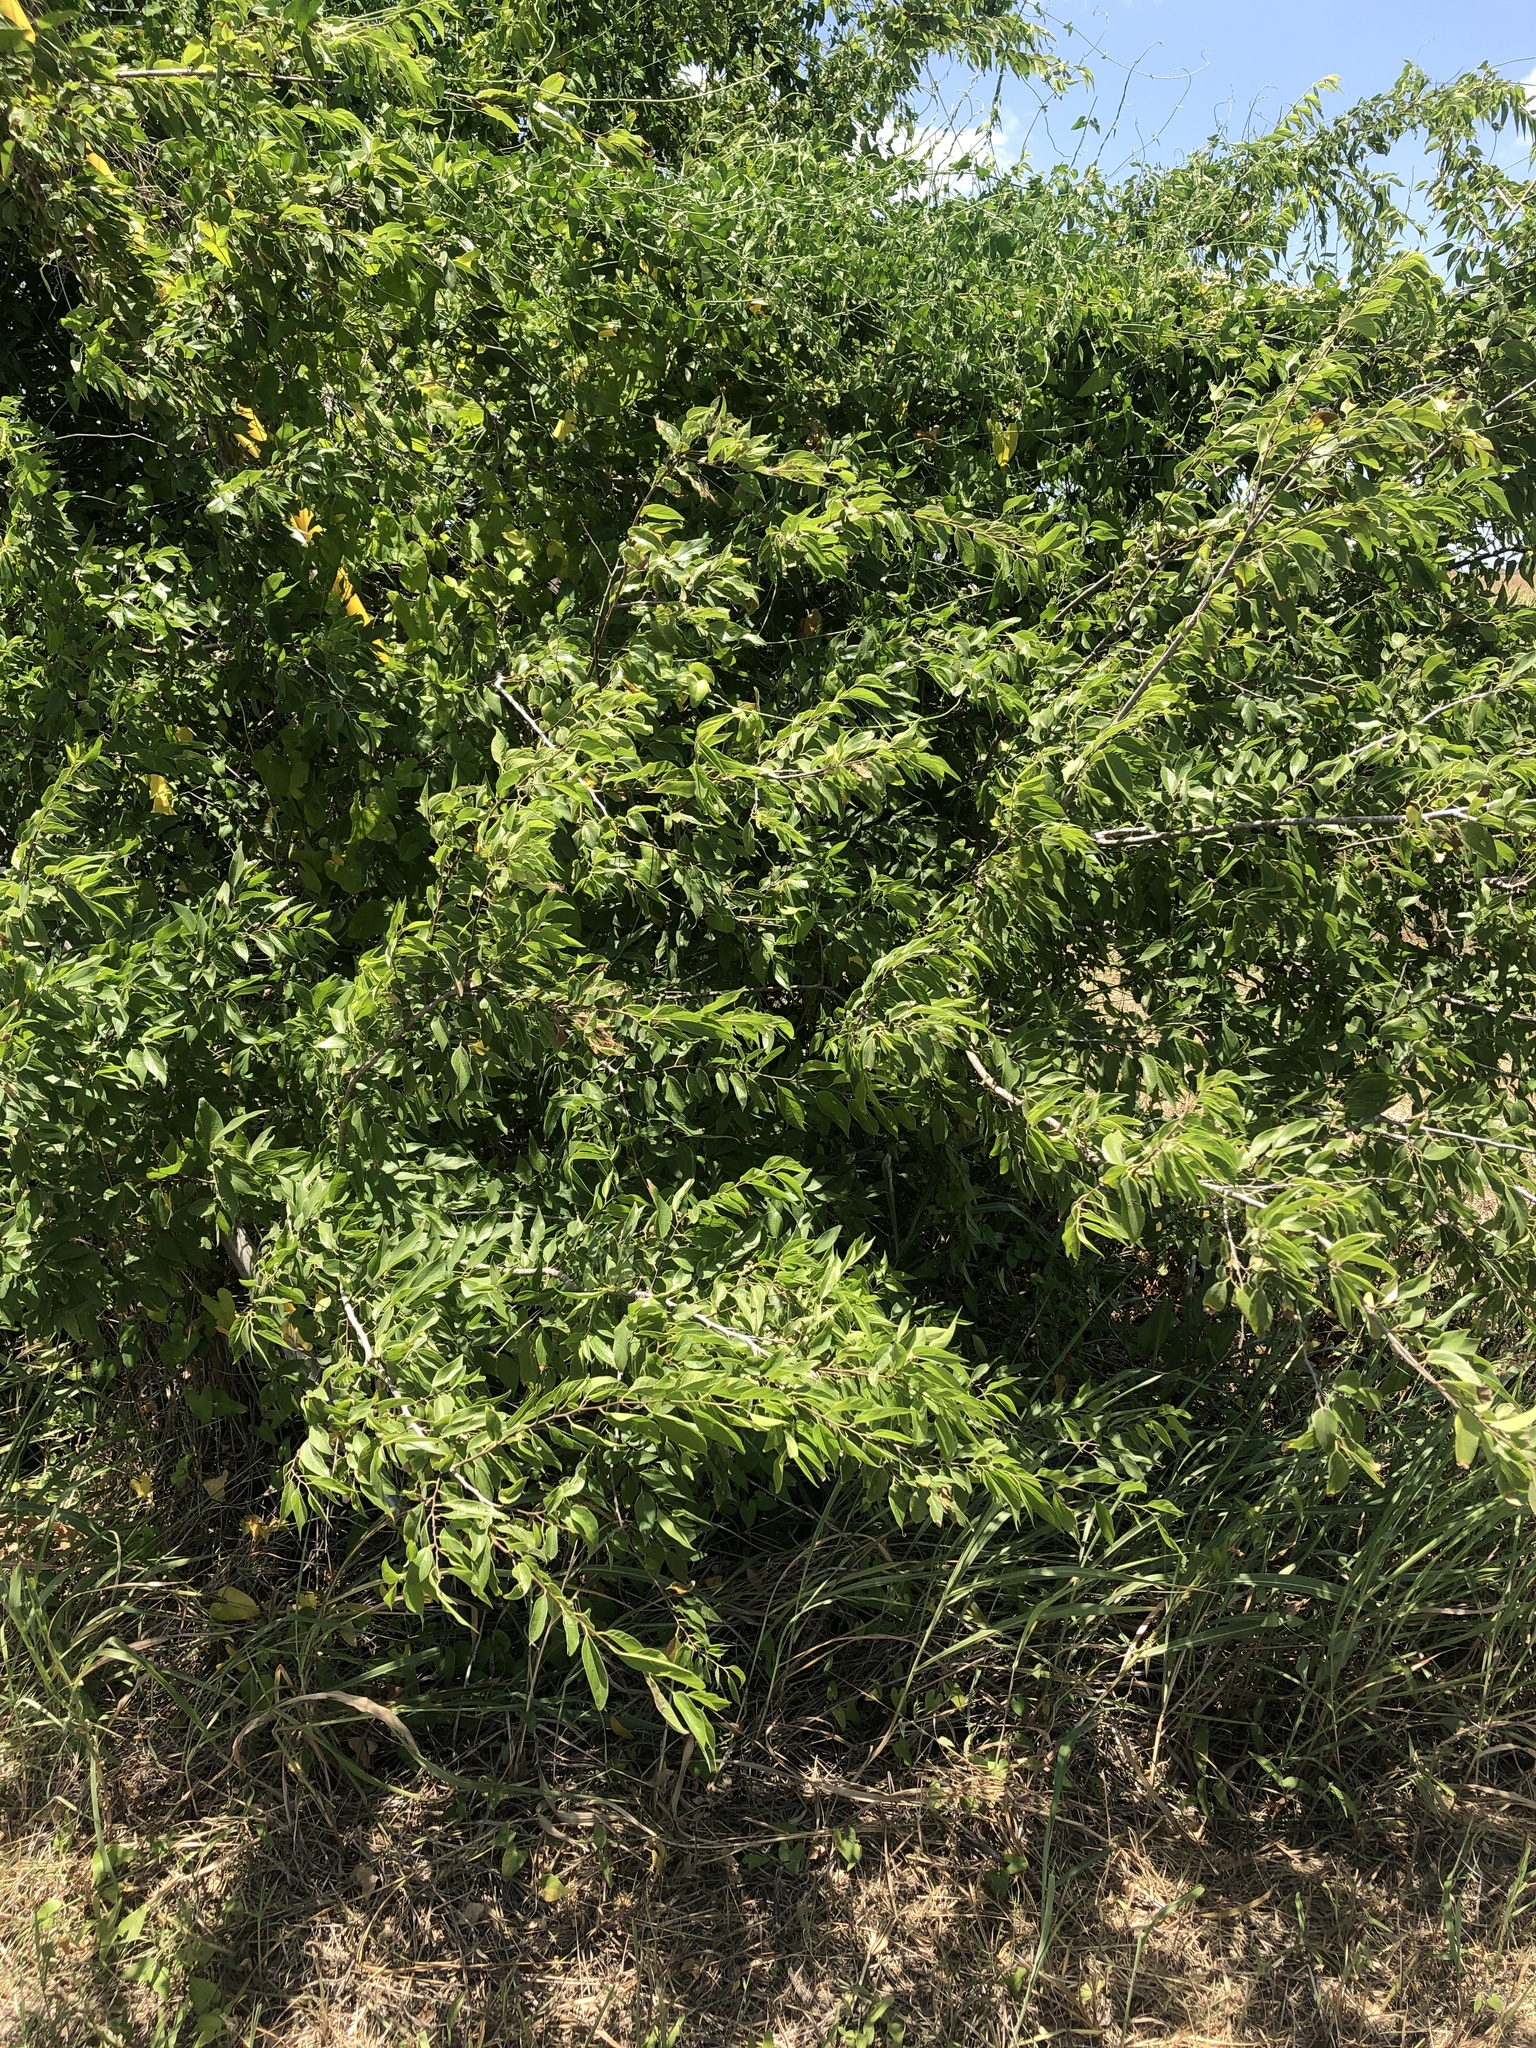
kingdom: Plantae
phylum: Tracheophyta
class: Magnoliopsida
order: Rosales
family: Cannabaceae
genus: Celtis
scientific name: Celtis laevigata
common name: Sugarberry
